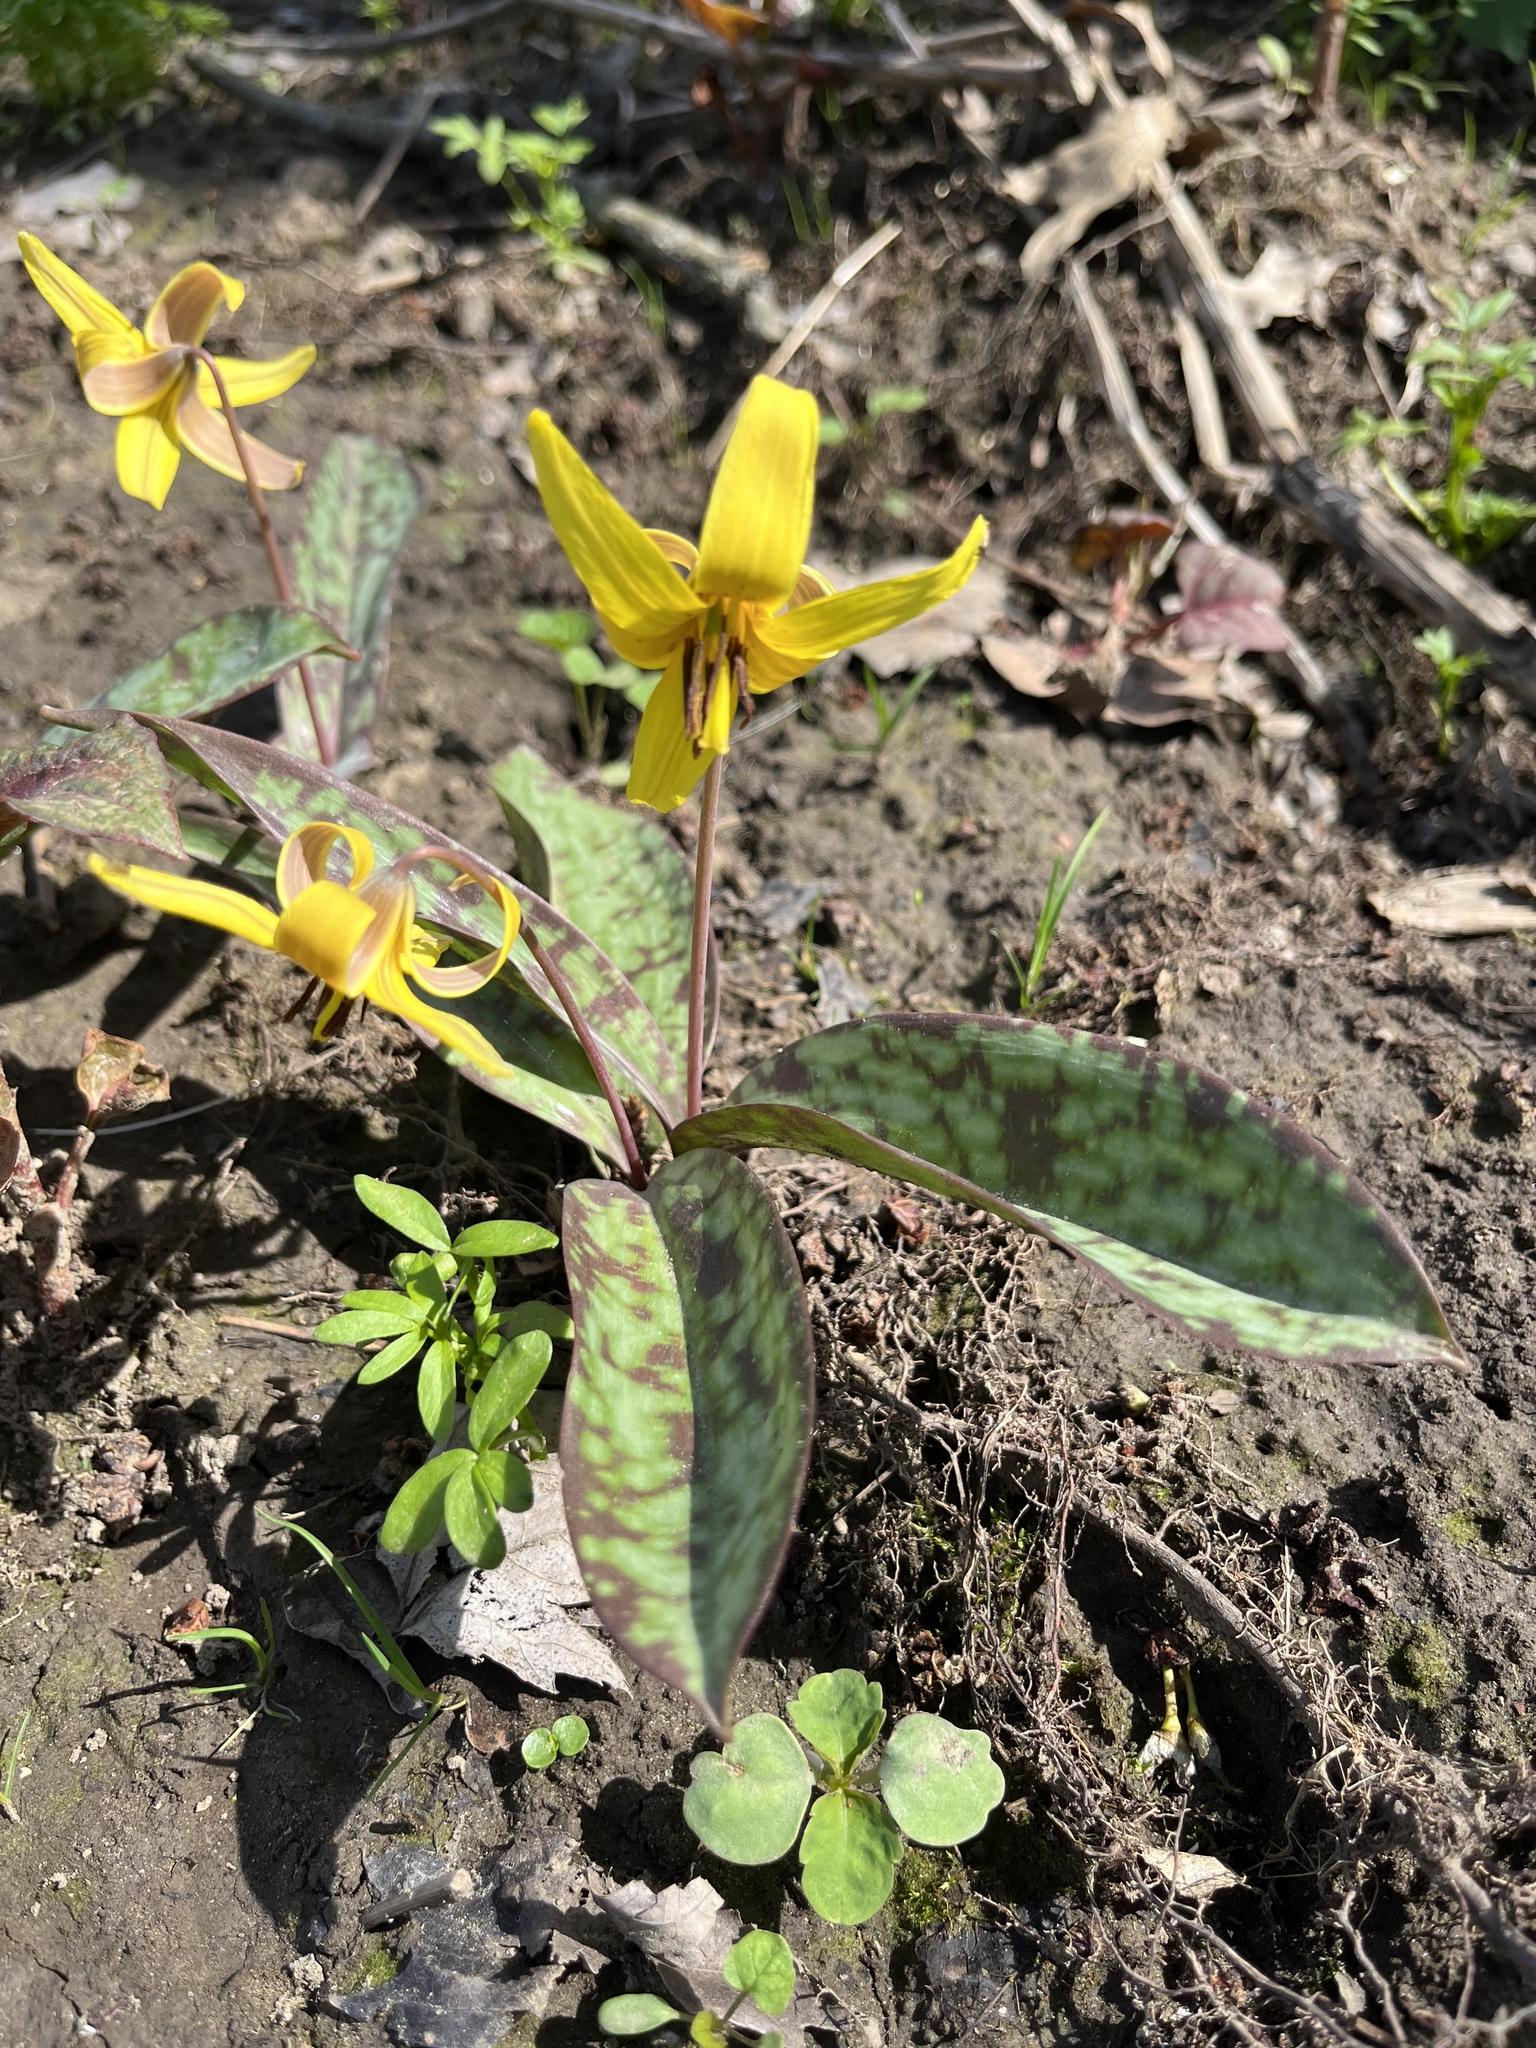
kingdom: Plantae
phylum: Tracheophyta
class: Liliopsida
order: Liliales
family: Liliaceae
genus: Erythronium
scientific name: Erythronium americanum
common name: Yellow adder's-tongue
